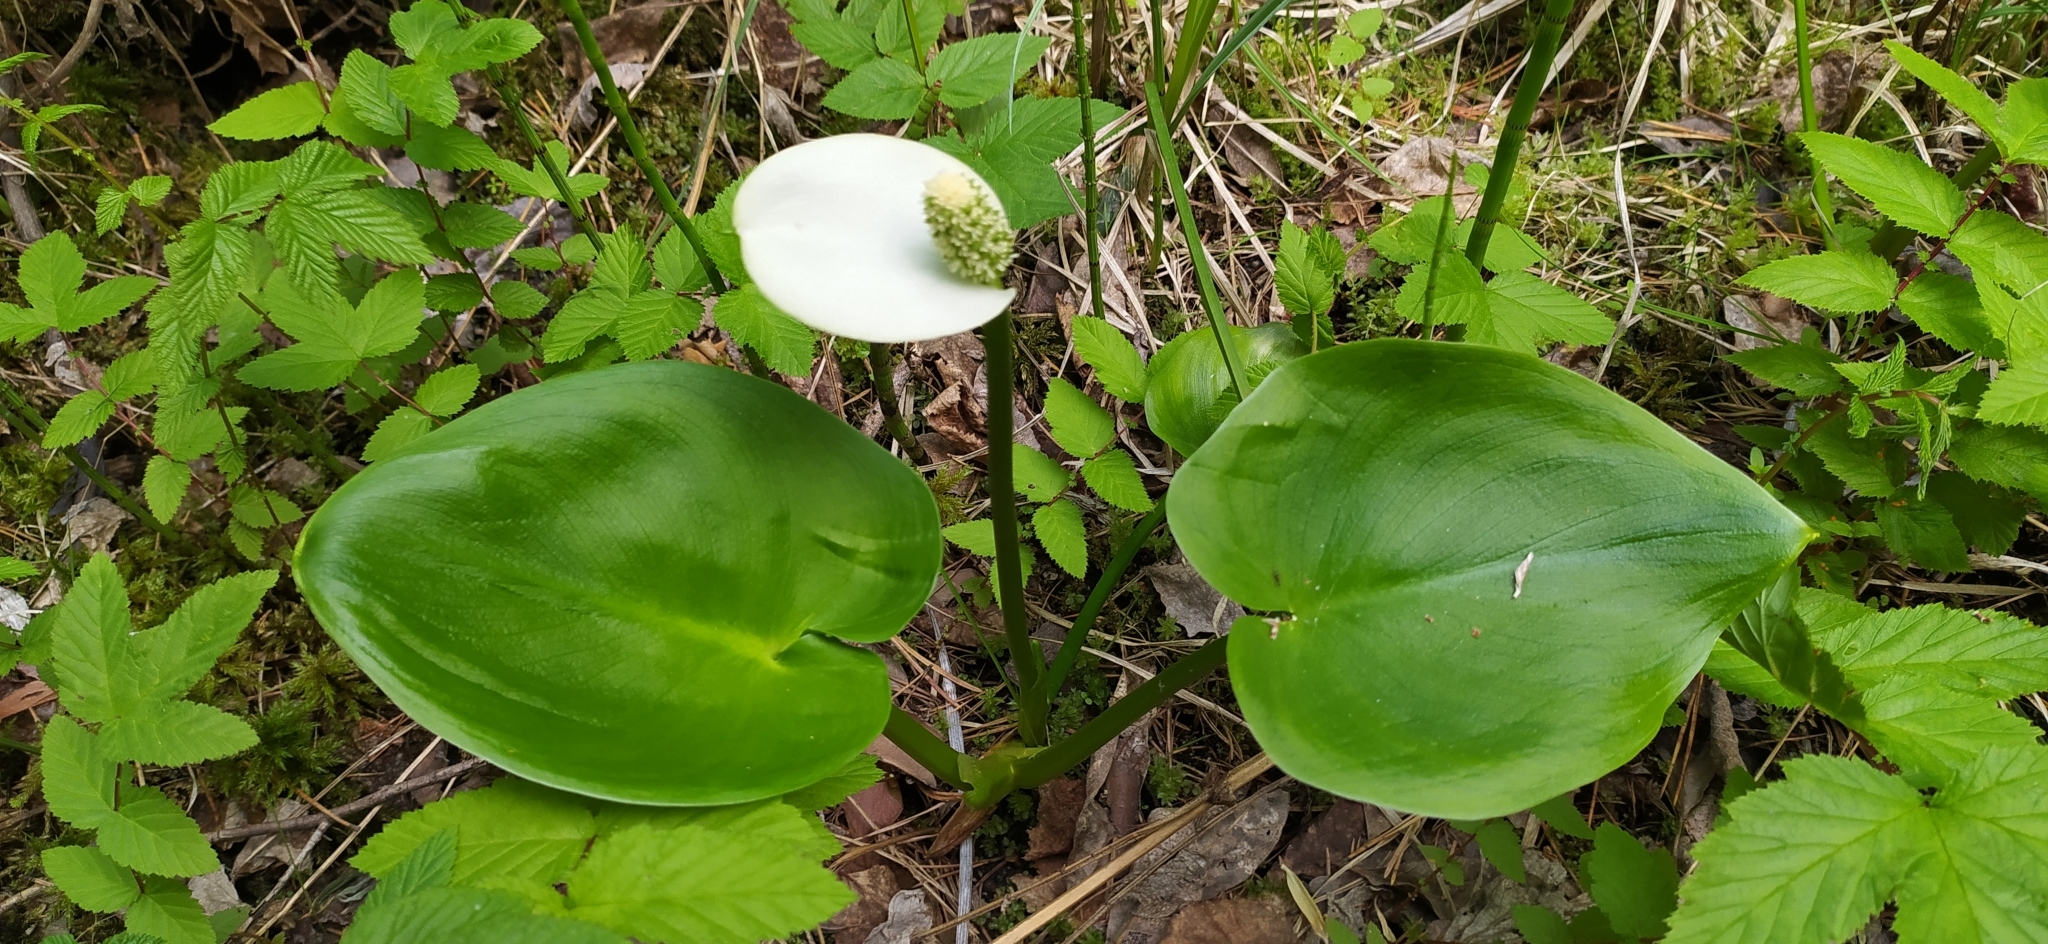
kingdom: Plantae
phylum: Tracheophyta
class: Liliopsida
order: Alismatales
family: Araceae
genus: Calla
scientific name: Calla palustris
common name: Bog arum
